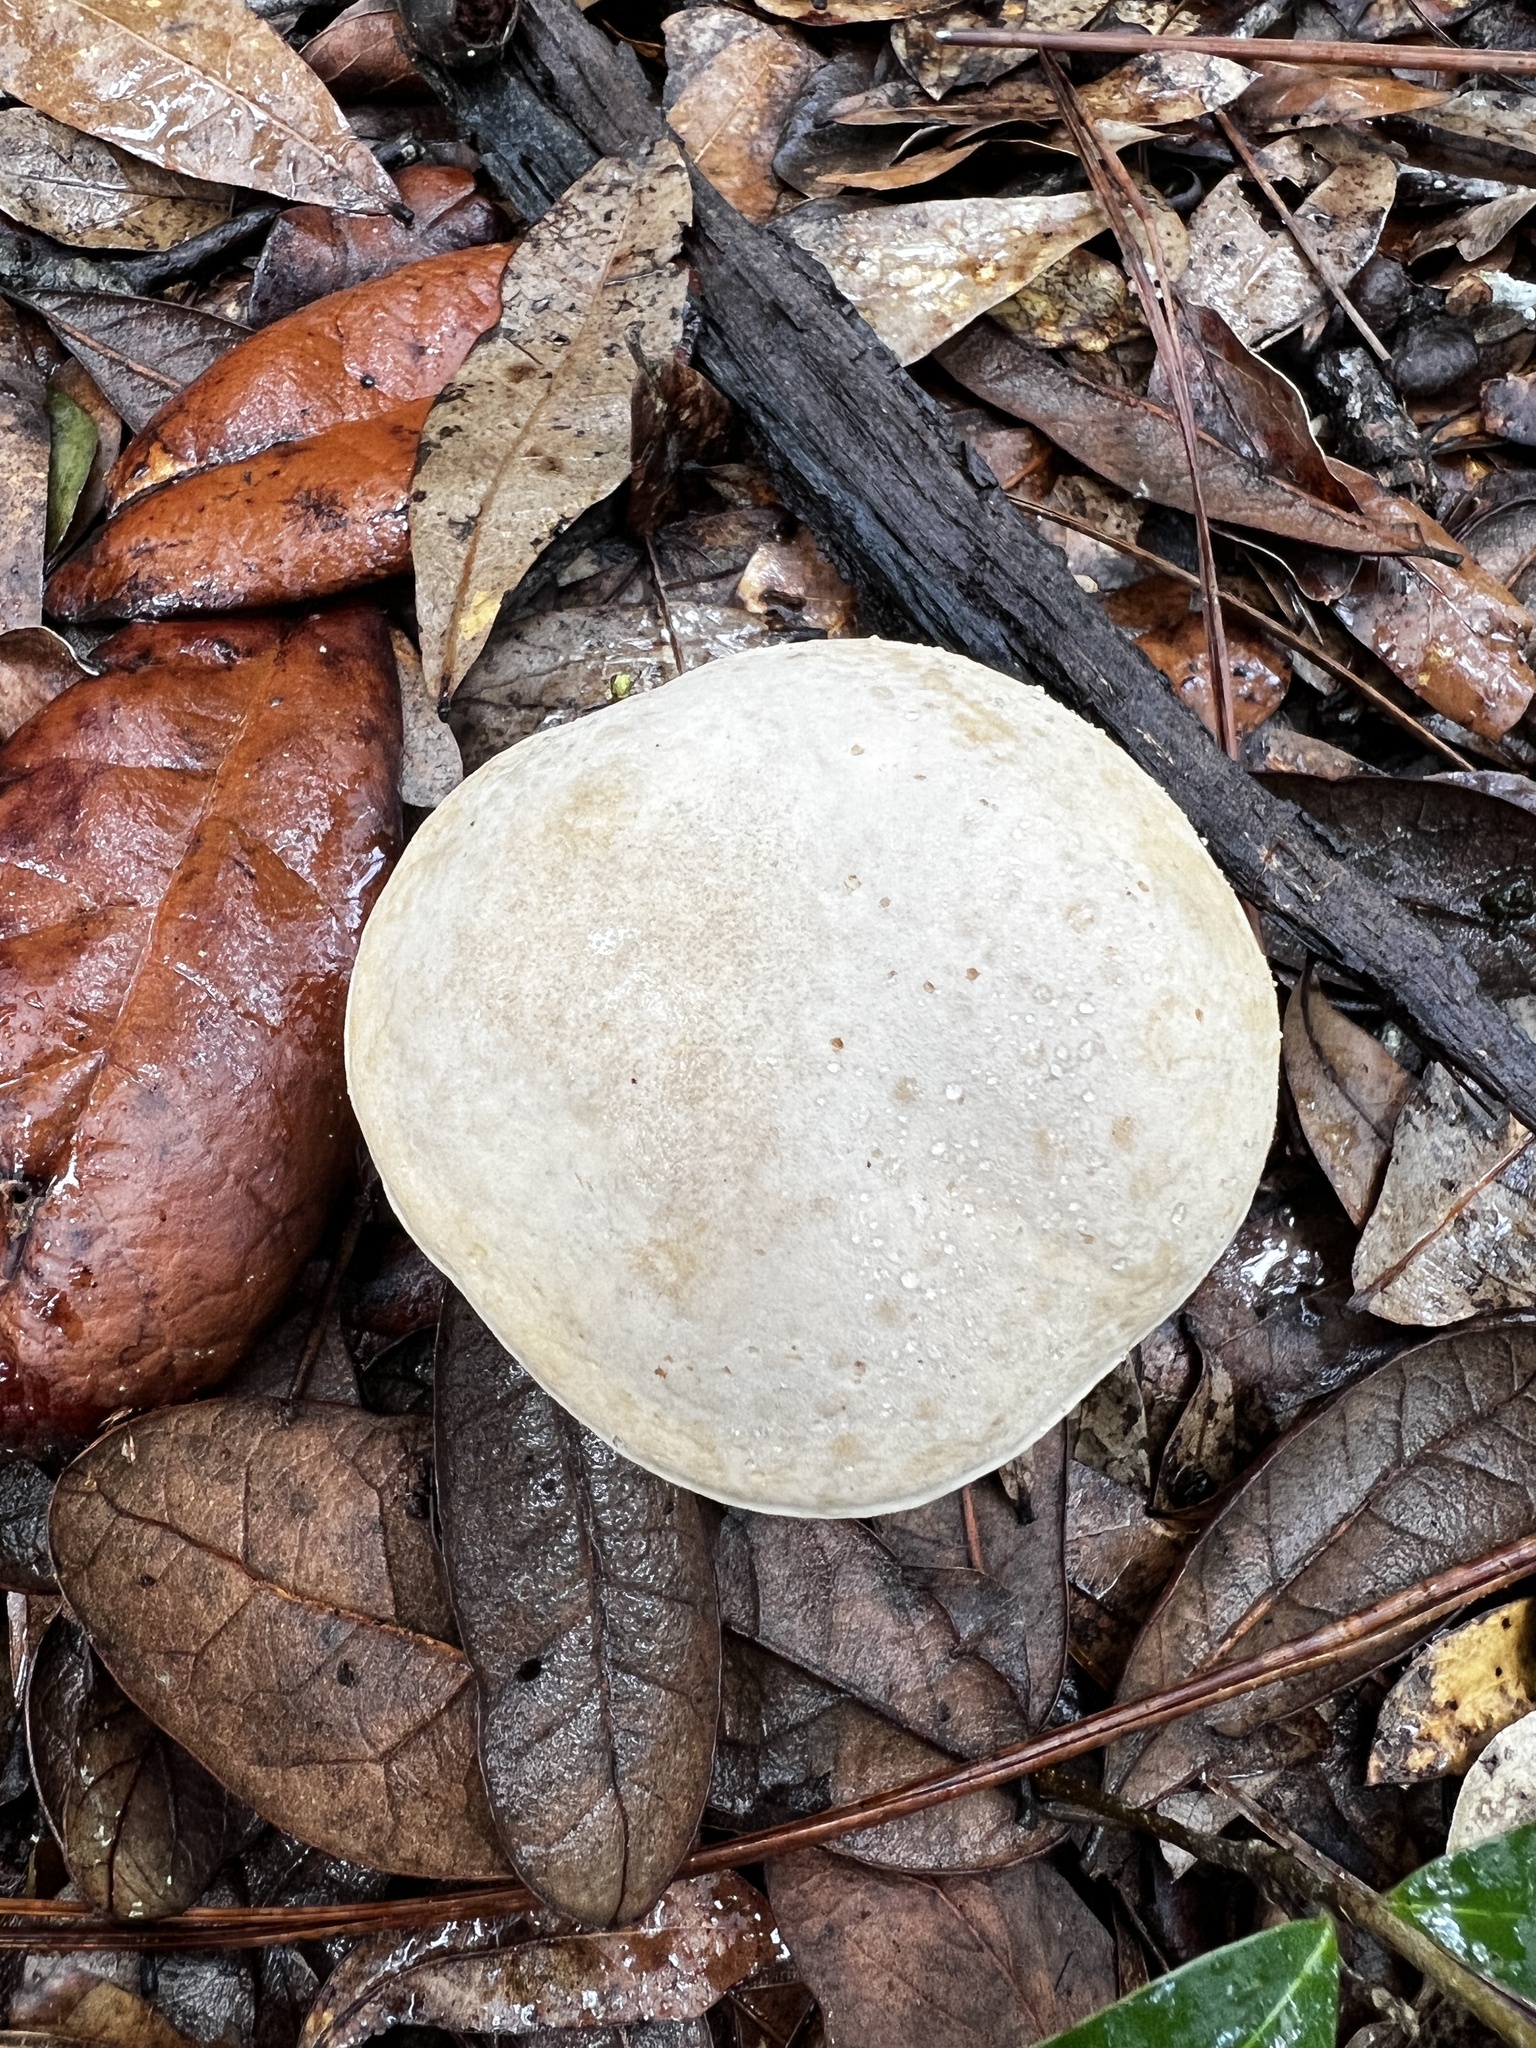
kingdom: Fungi
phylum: Basidiomycota
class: Agaricomycetes
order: Boletales
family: Boletaceae
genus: Imleria
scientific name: Imleria pallida
